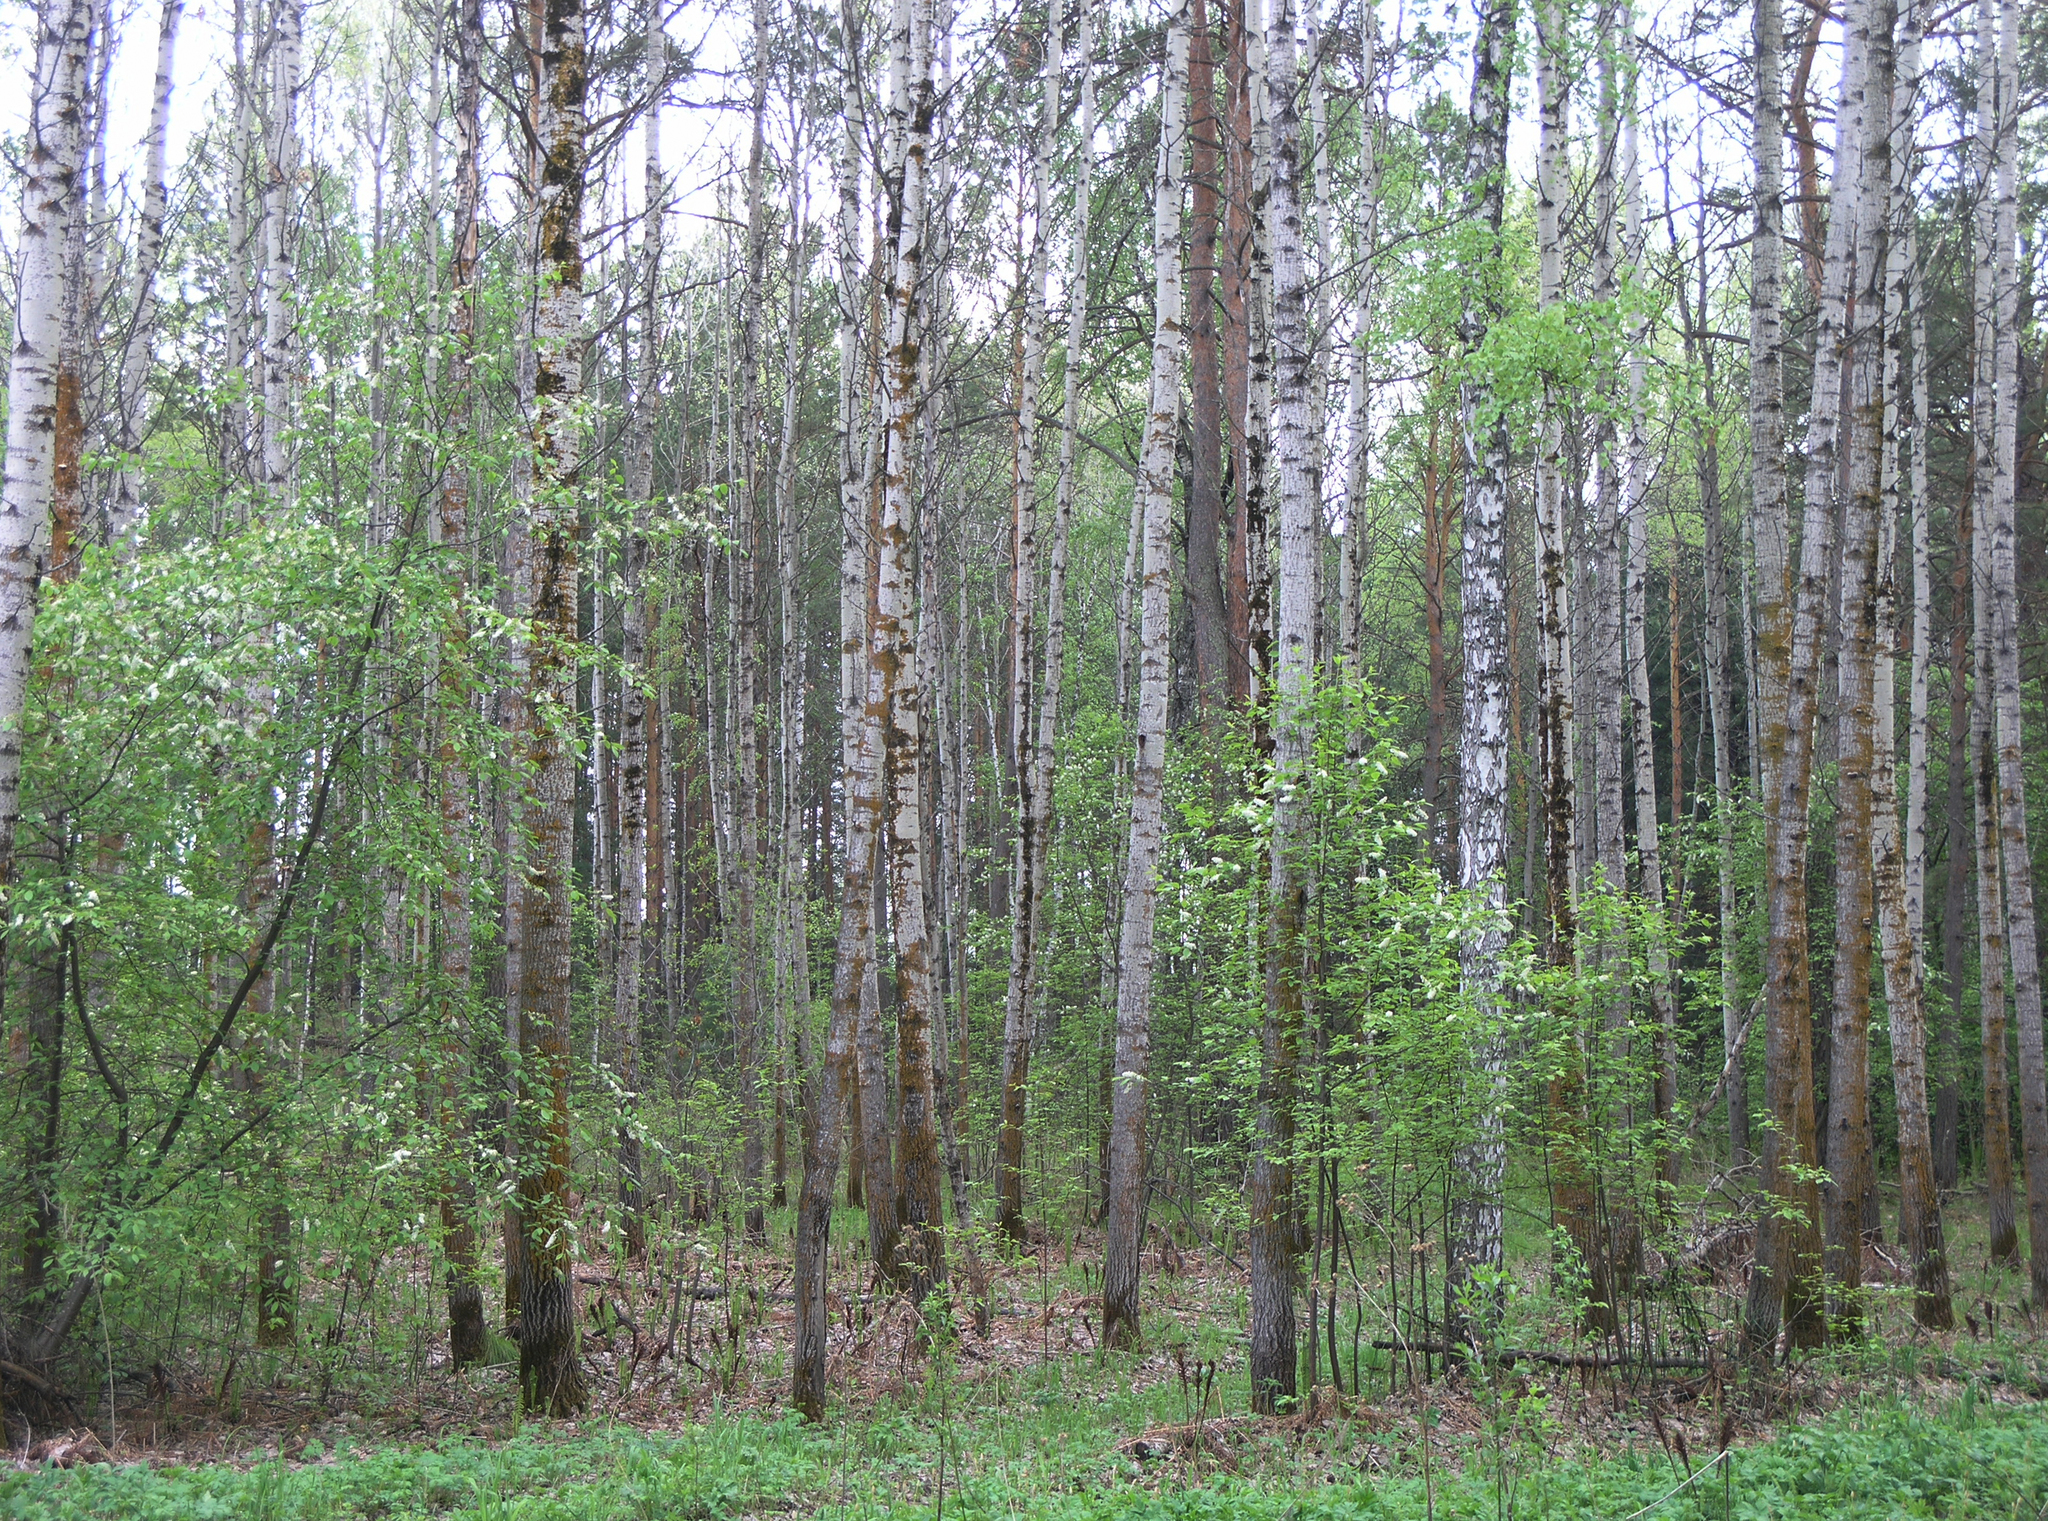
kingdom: Plantae
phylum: Tracheophyta
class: Magnoliopsida
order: Rosales
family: Rosaceae
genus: Prunus
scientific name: Prunus padus
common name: Bird cherry
